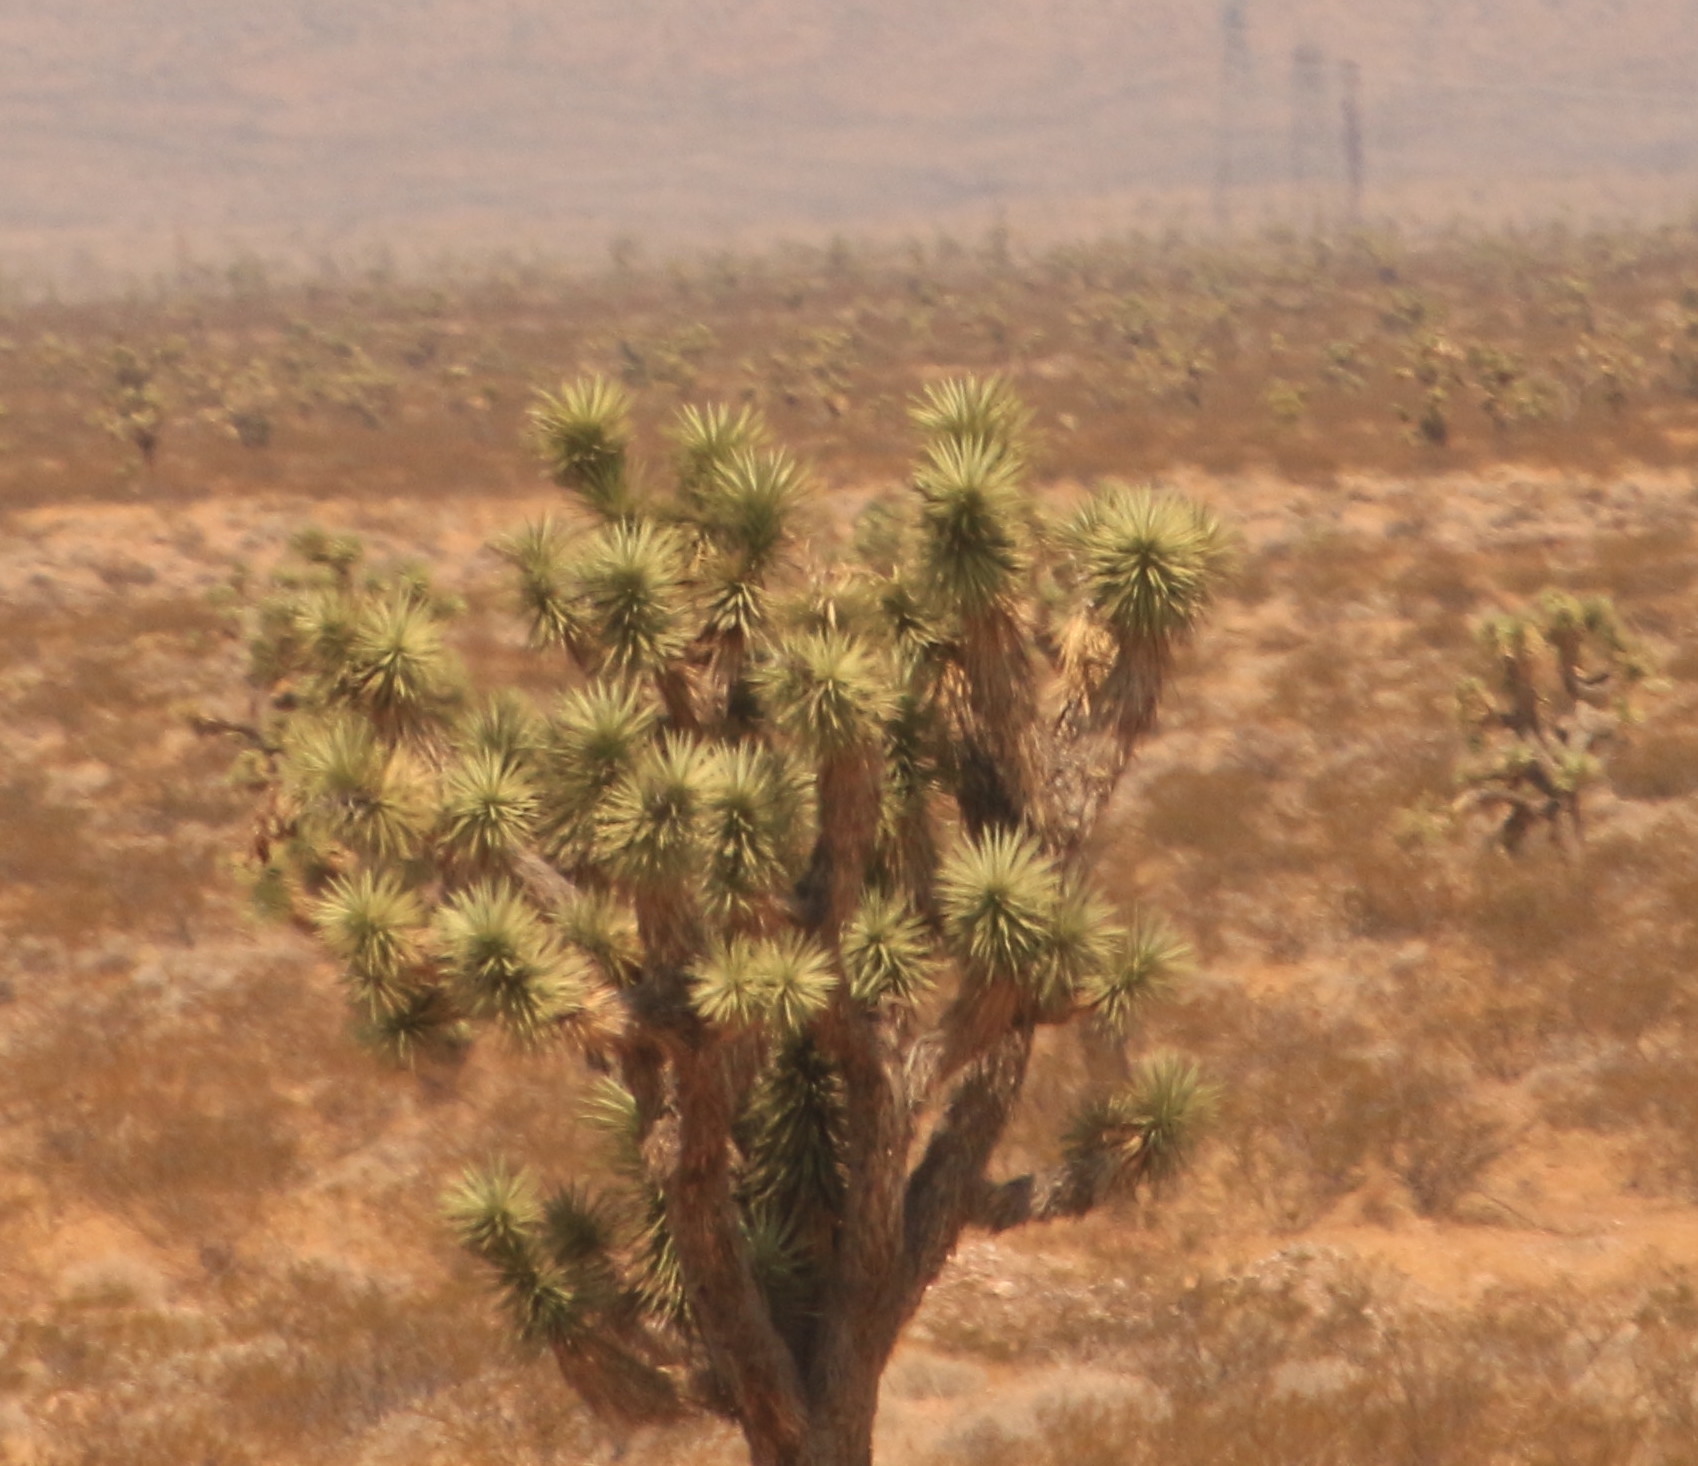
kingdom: Plantae
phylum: Tracheophyta
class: Liliopsida
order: Asparagales
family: Asparagaceae
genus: Yucca
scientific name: Yucca brevifolia
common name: Joshua tree
